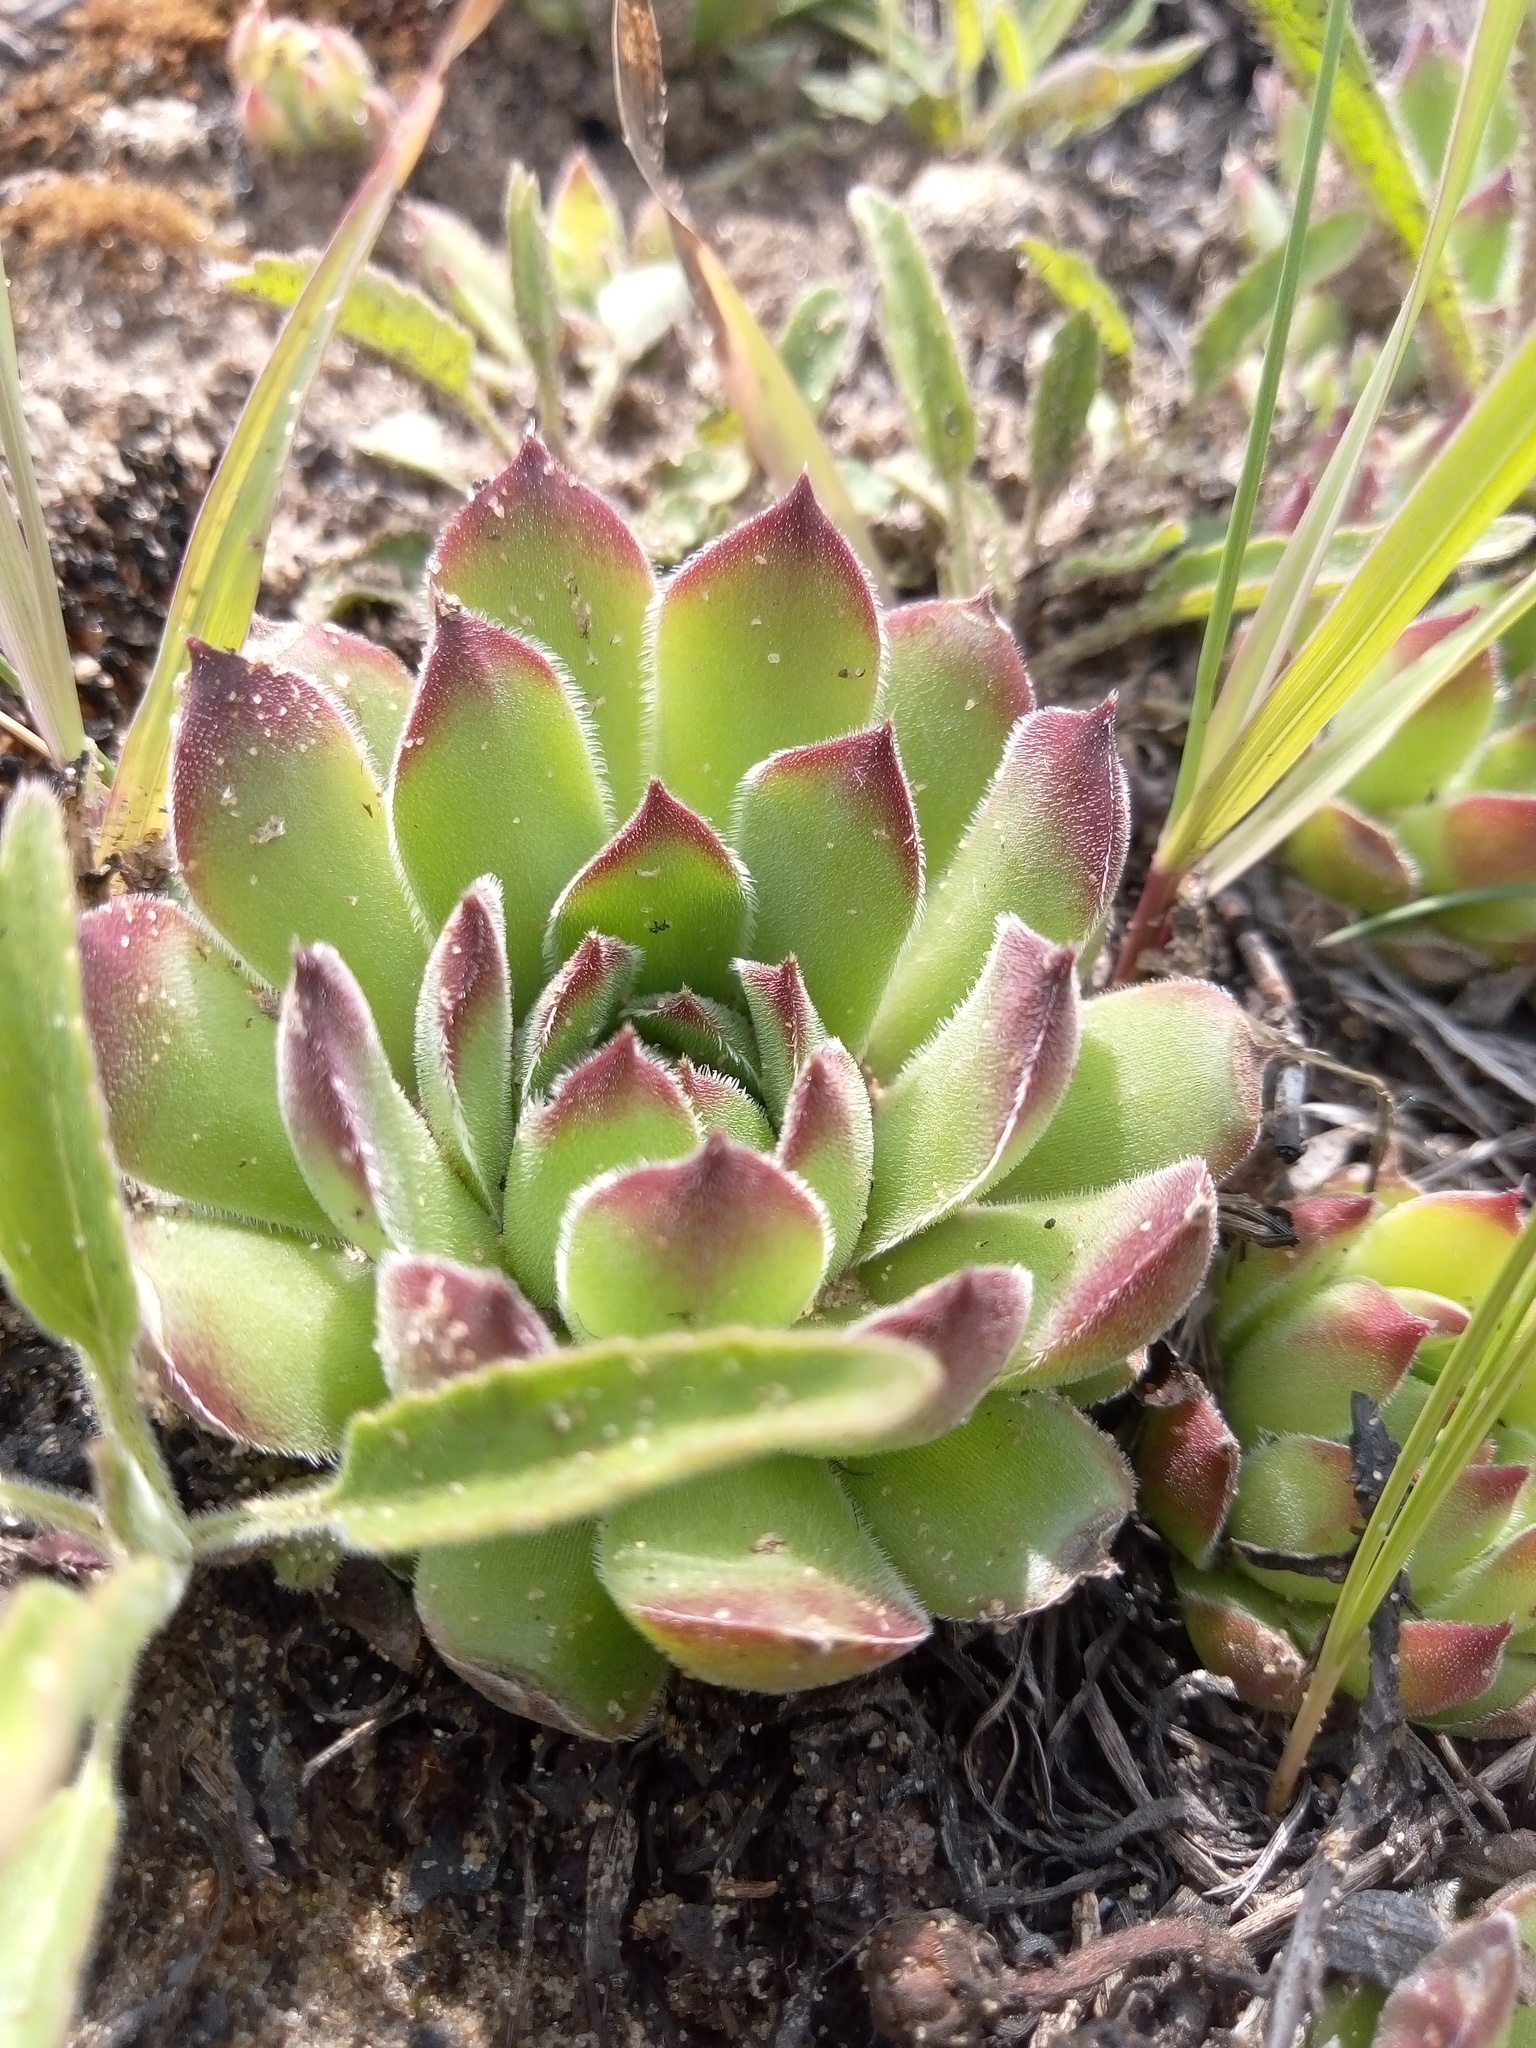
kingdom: Plantae
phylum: Tracheophyta
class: Magnoliopsida
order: Saxifragales
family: Crassulaceae
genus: Sempervivum
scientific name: Sempervivum ruthenicum
